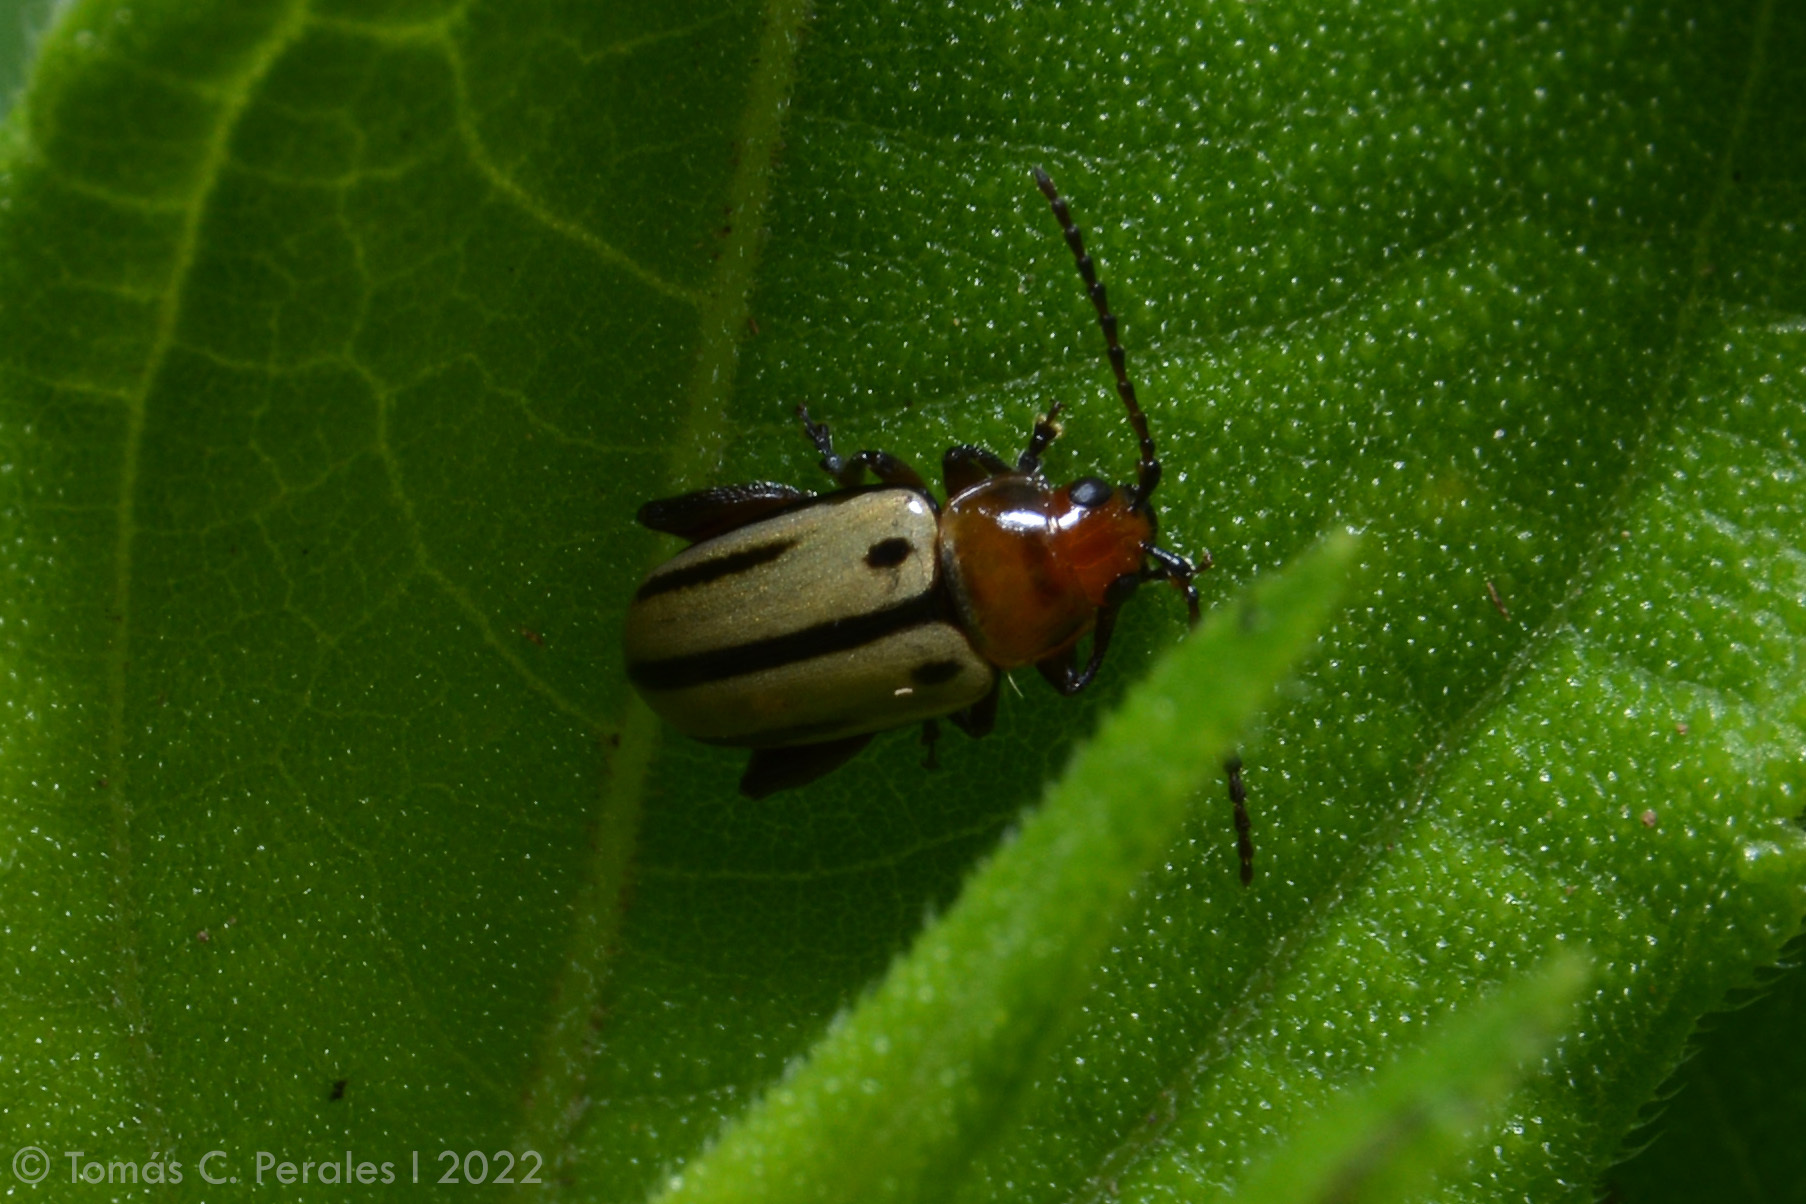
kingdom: Animalia
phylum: Arthropoda
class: Insecta
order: Coleoptera
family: Chrysomelidae
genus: Disonychodes
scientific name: Disonychodes
